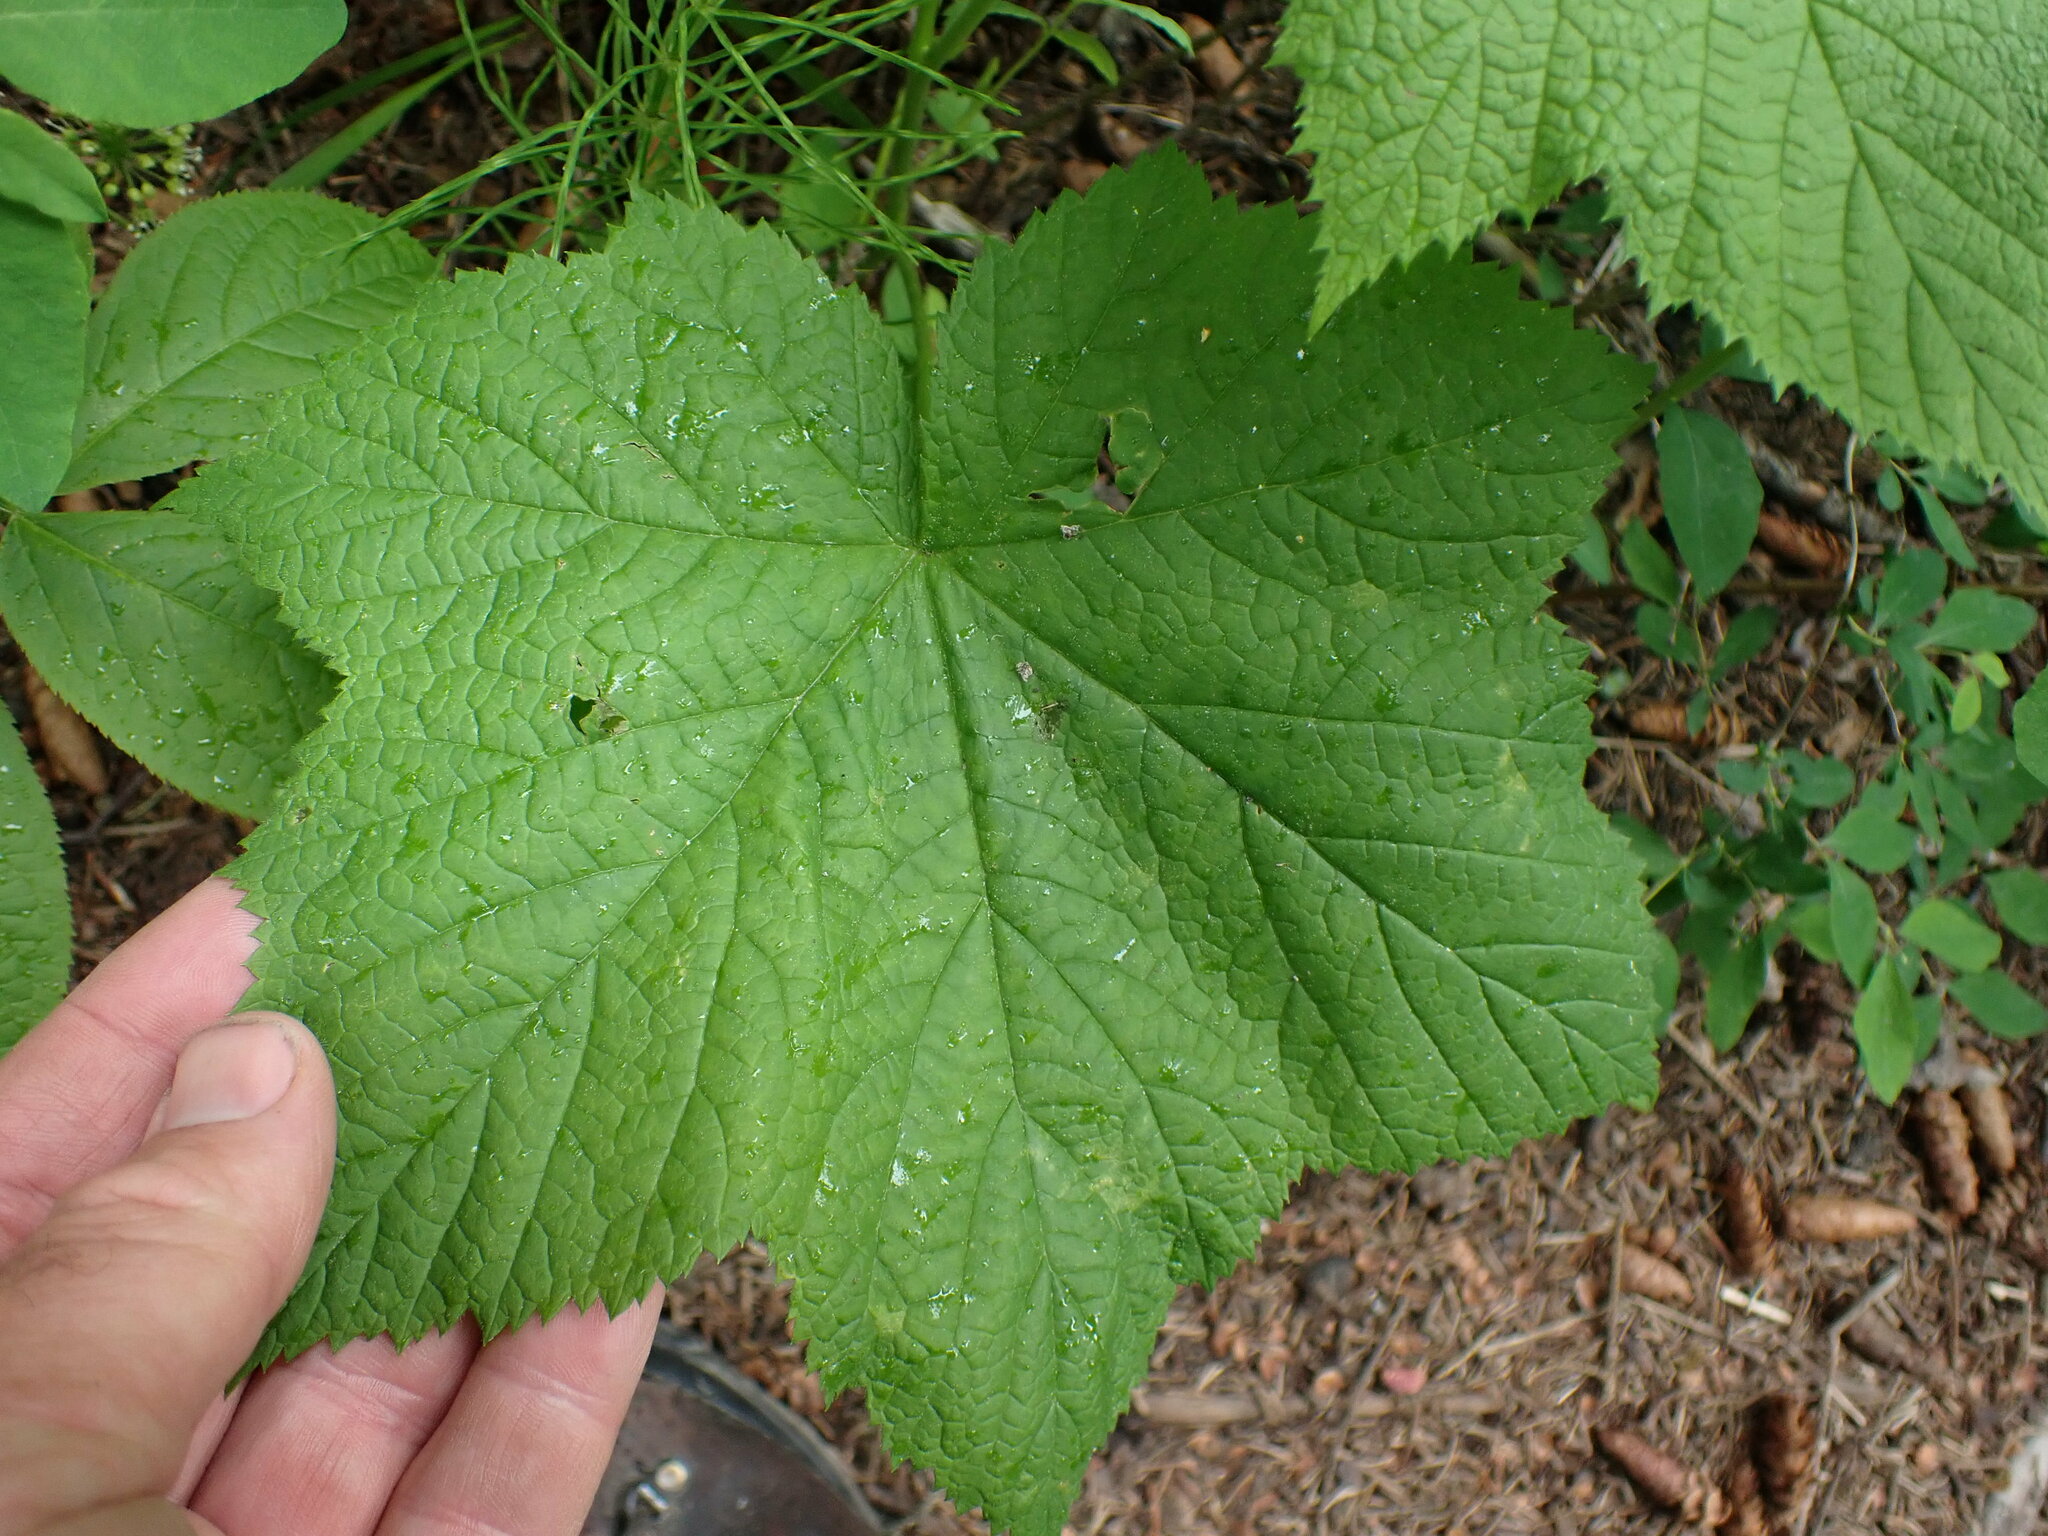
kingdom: Plantae
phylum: Tracheophyta
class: Magnoliopsida
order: Rosales
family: Rosaceae
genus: Rubus
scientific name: Rubus parviflorus
